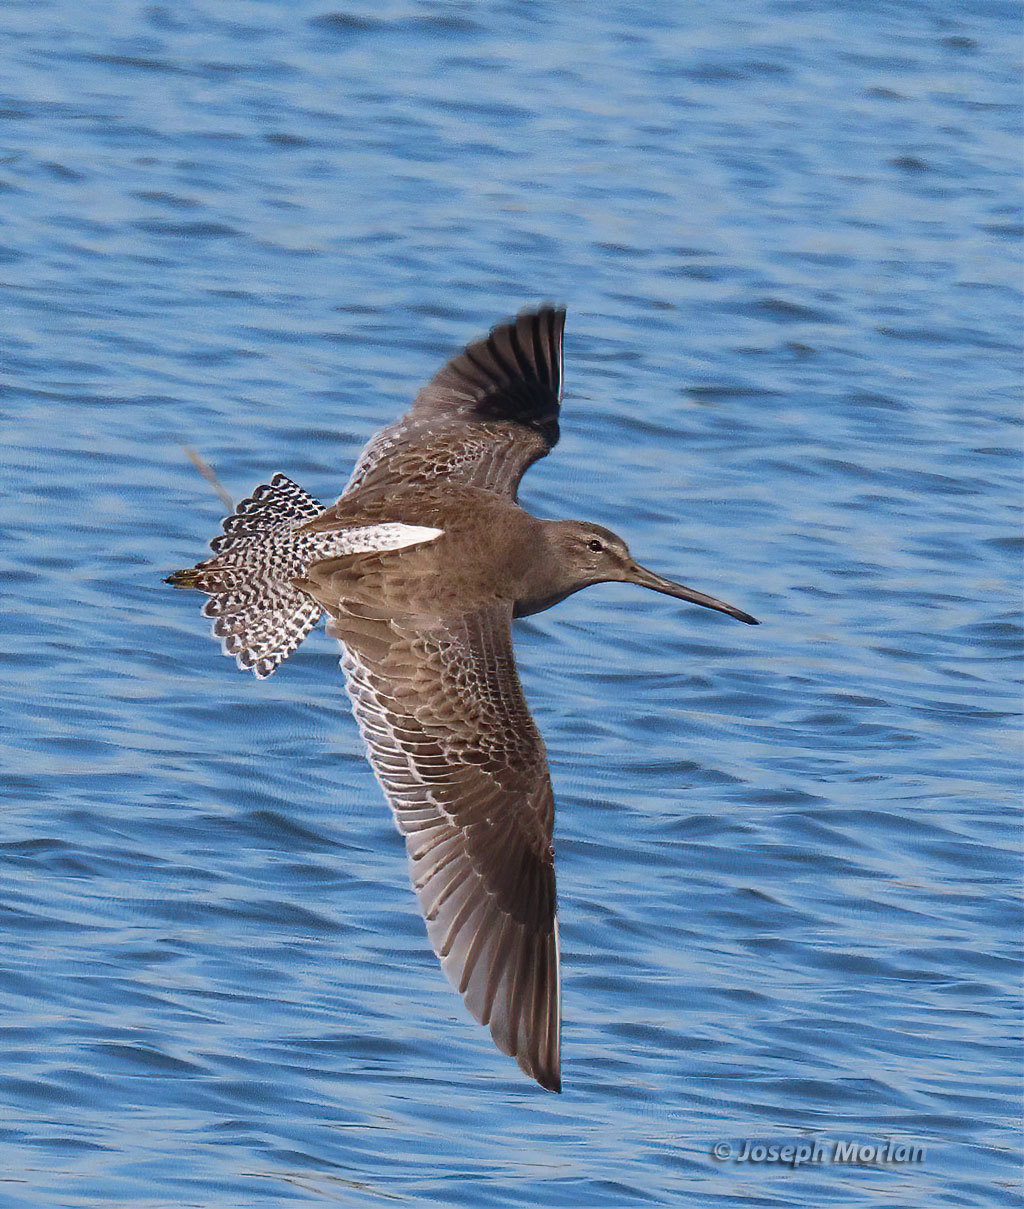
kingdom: Animalia
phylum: Chordata
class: Aves
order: Charadriiformes
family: Scolopacidae
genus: Limnodromus
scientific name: Limnodromus griseus
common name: Short-billed dowitcher
